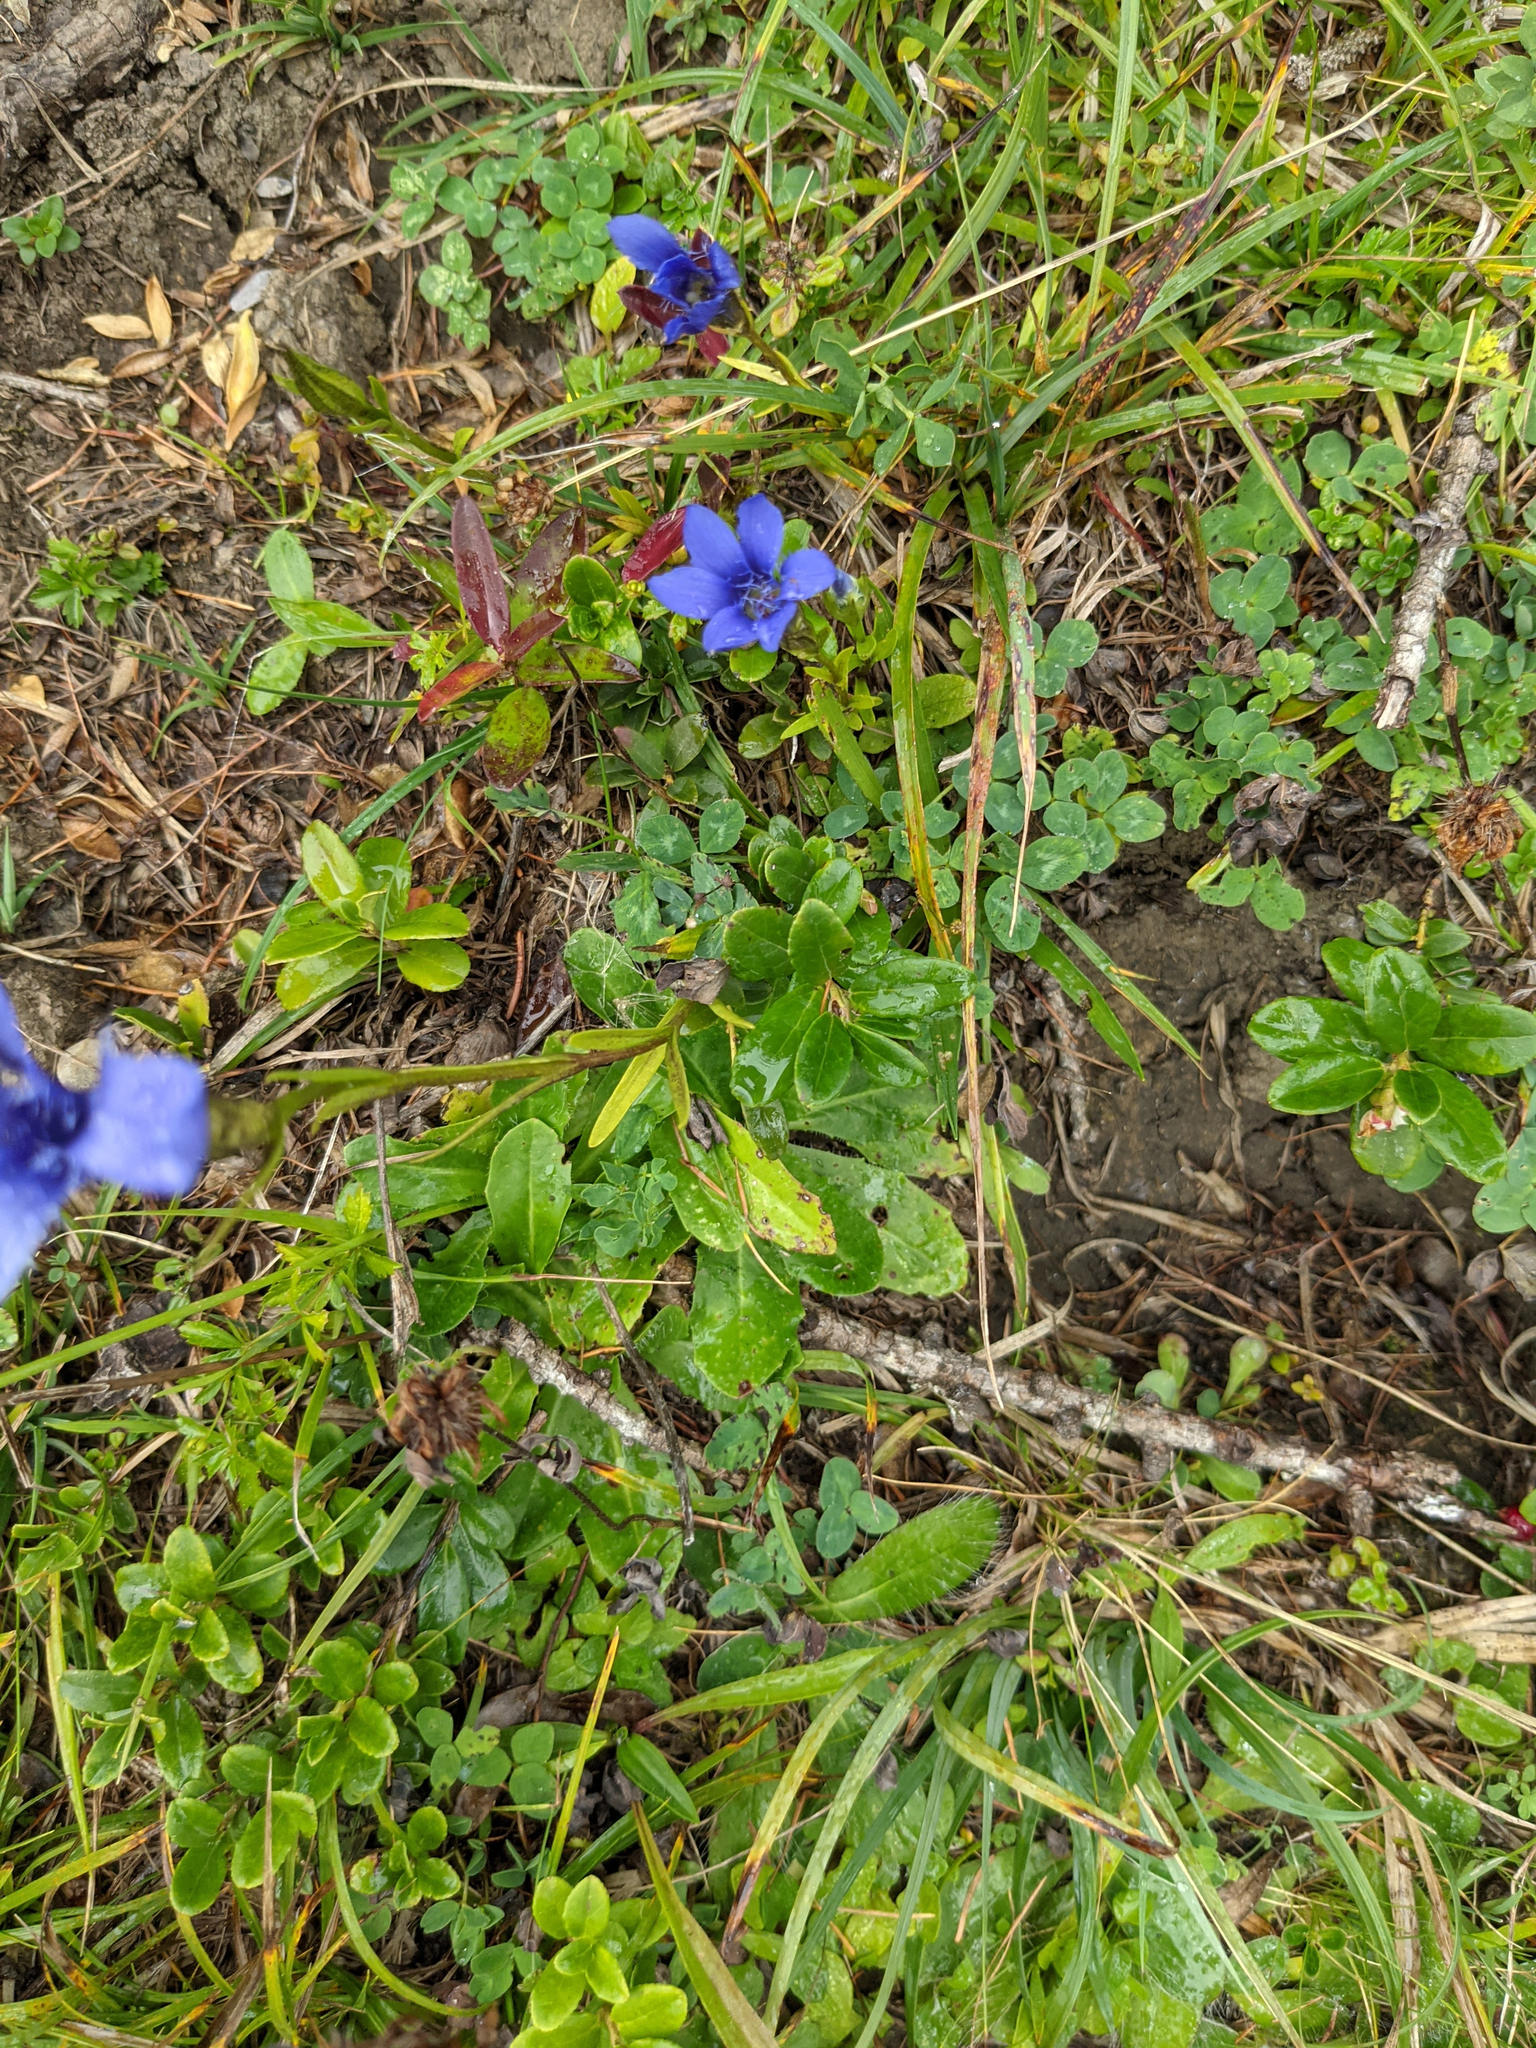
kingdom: Plantae
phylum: Tracheophyta
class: Magnoliopsida
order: Gentianales
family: Gentianaceae
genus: Gentianopsis
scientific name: Gentianopsis ciliata
